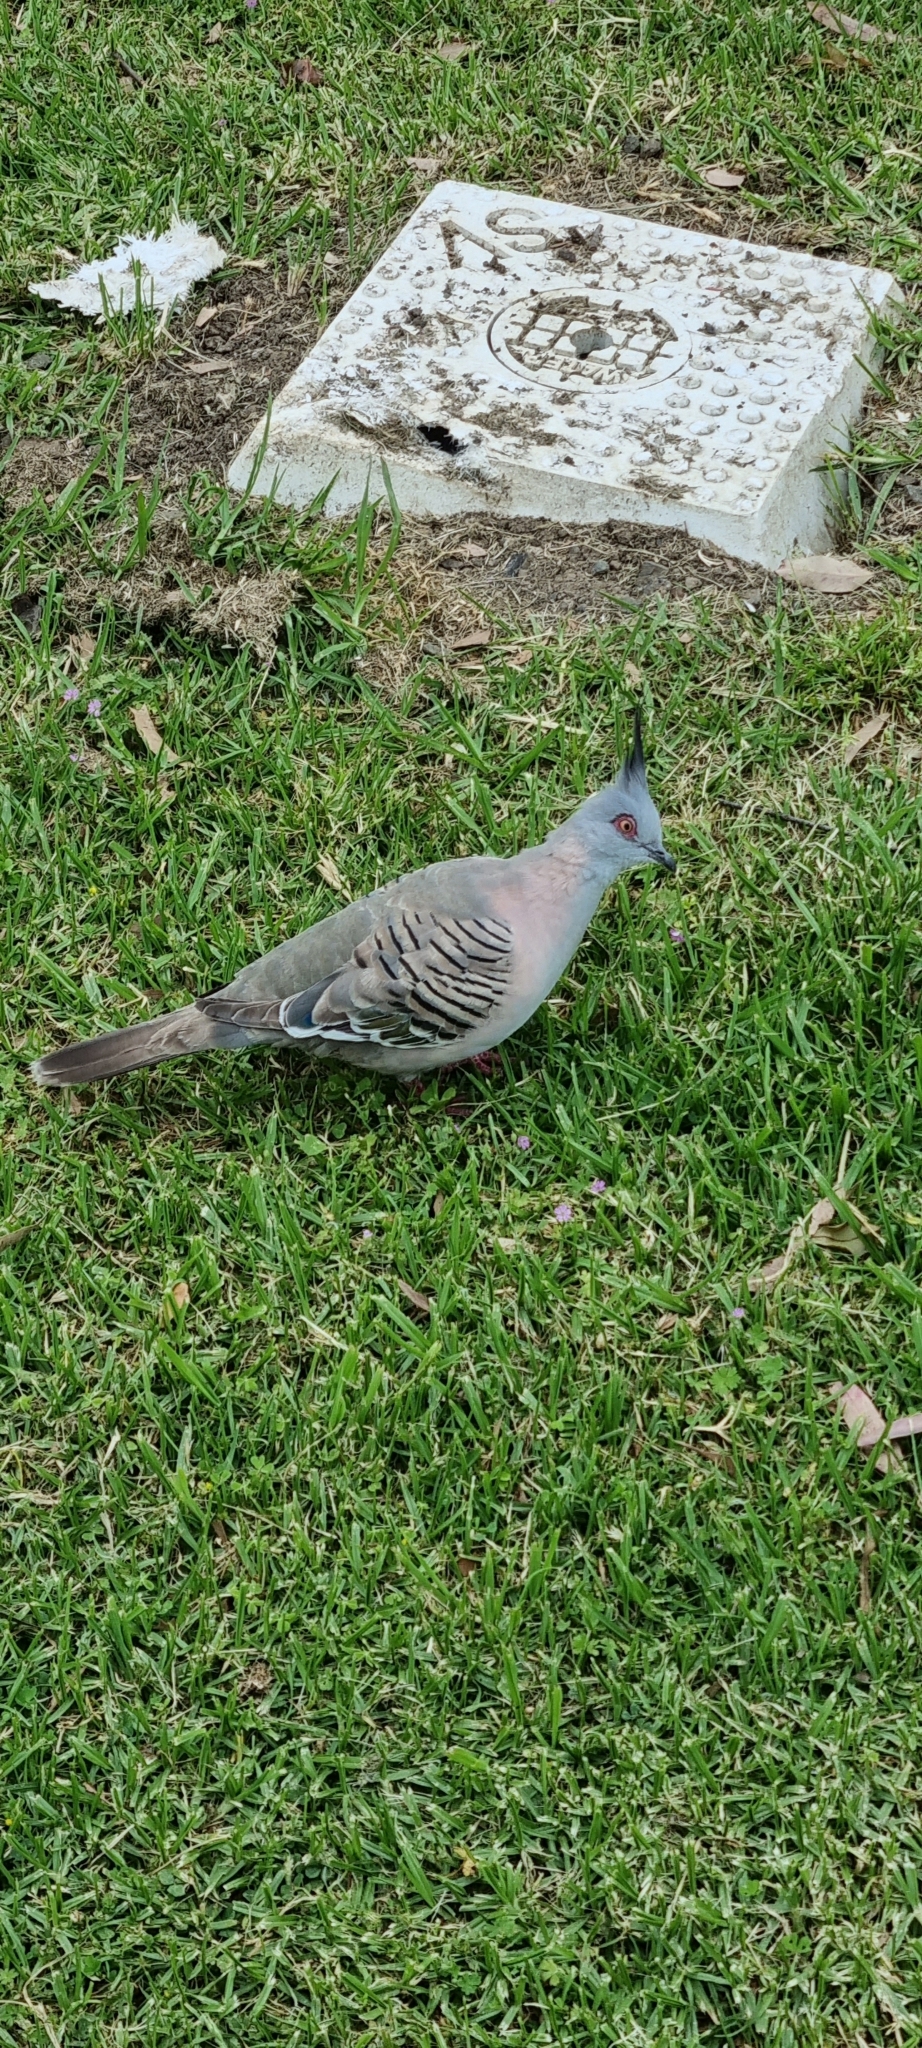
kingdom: Animalia
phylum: Chordata
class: Aves
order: Columbiformes
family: Columbidae
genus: Ocyphaps
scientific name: Ocyphaps lophotes
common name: Crested pigeon
